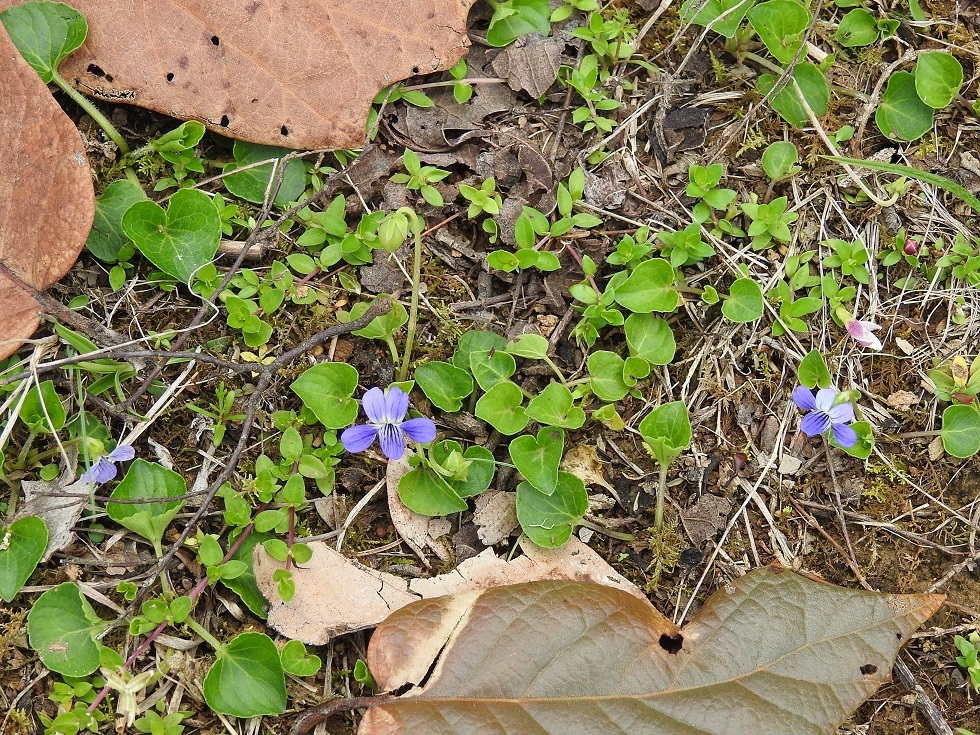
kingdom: Plantae
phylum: Tracheophyta
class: Magnoliopsida
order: Malpighiales
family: Violaceae
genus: Viola
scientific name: Viola nannei
